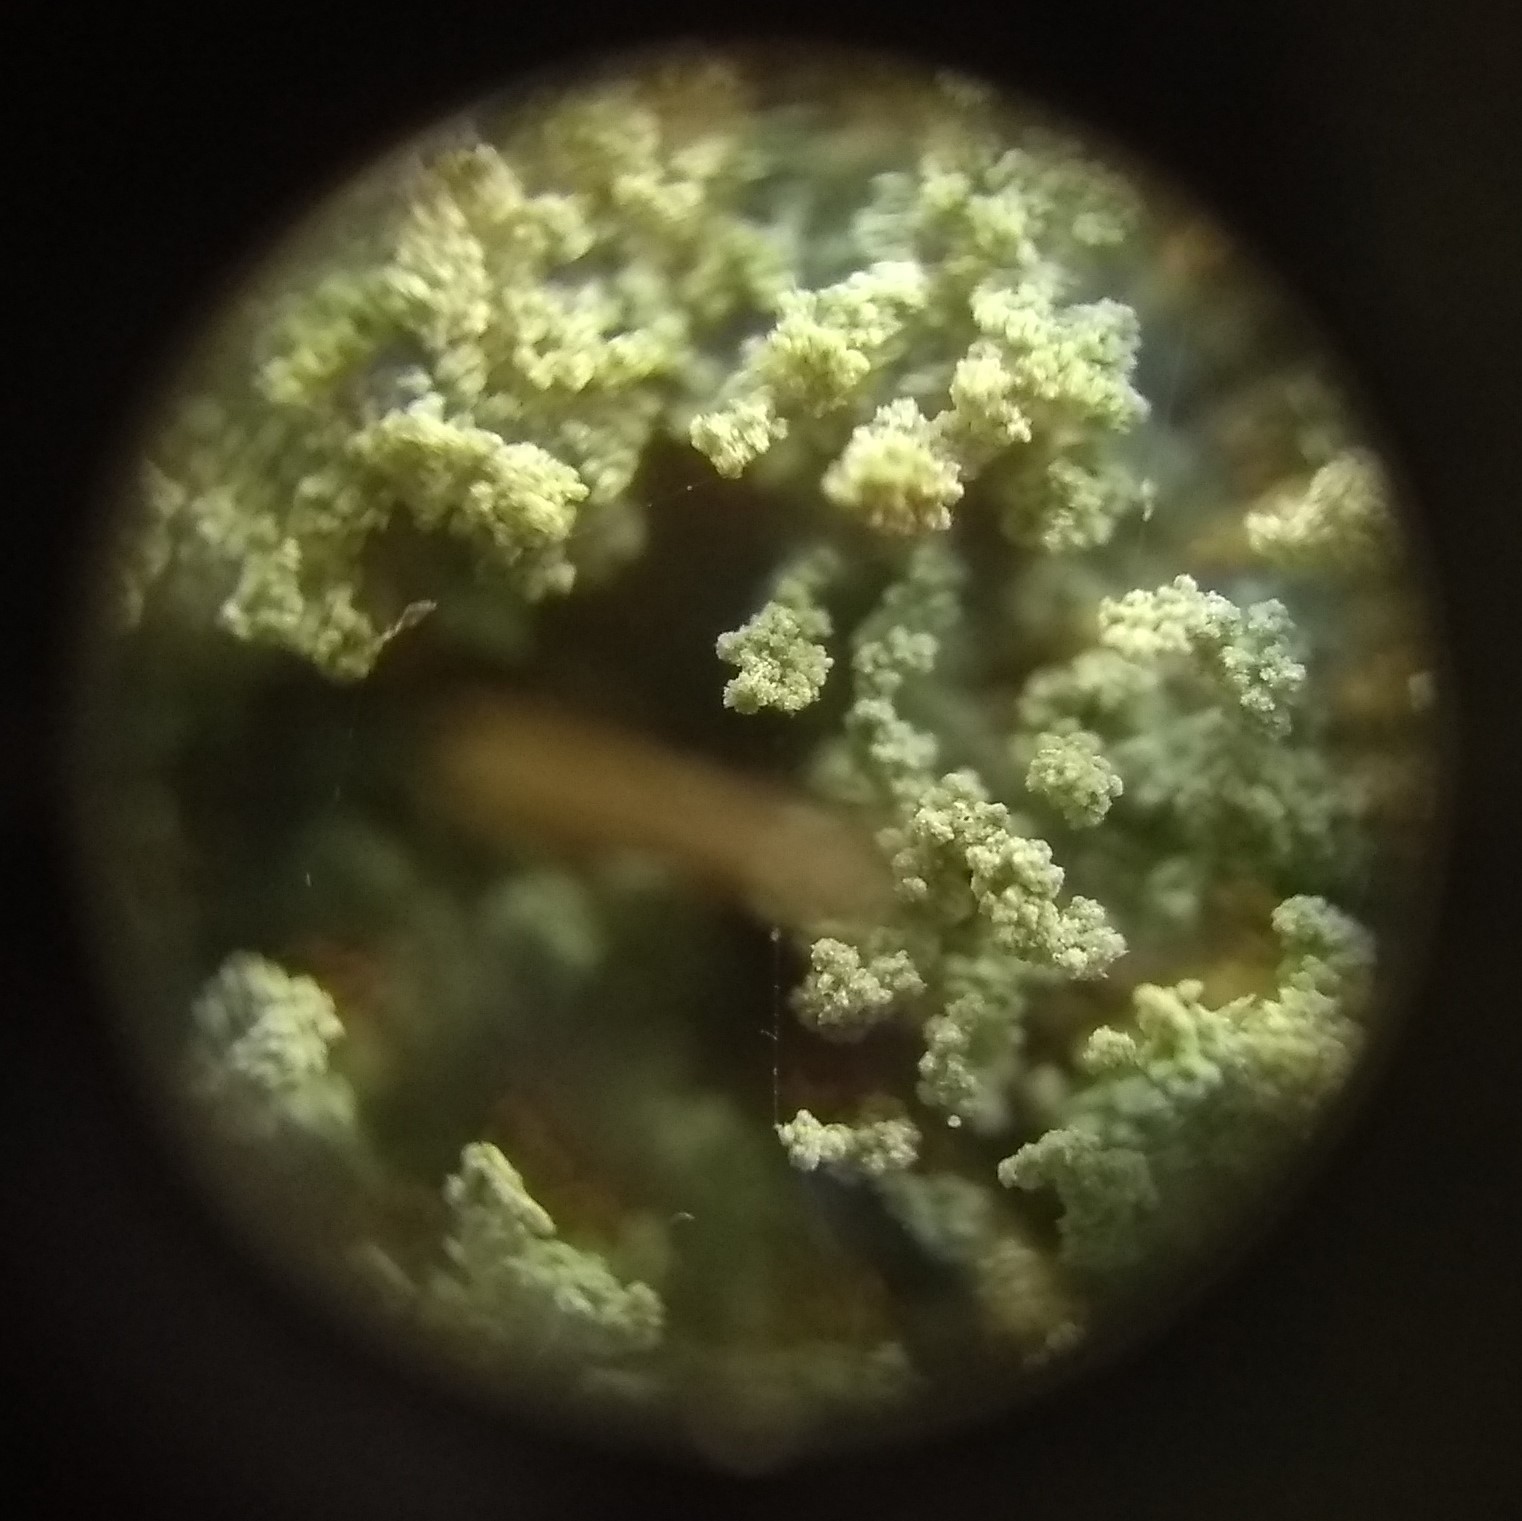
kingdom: Fungi
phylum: Ascomycota
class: Lecanoromycetes
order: Teloschistales
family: Leprocaulaceae
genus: Leprocaulon
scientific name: Leprocaulon quisquiliare
